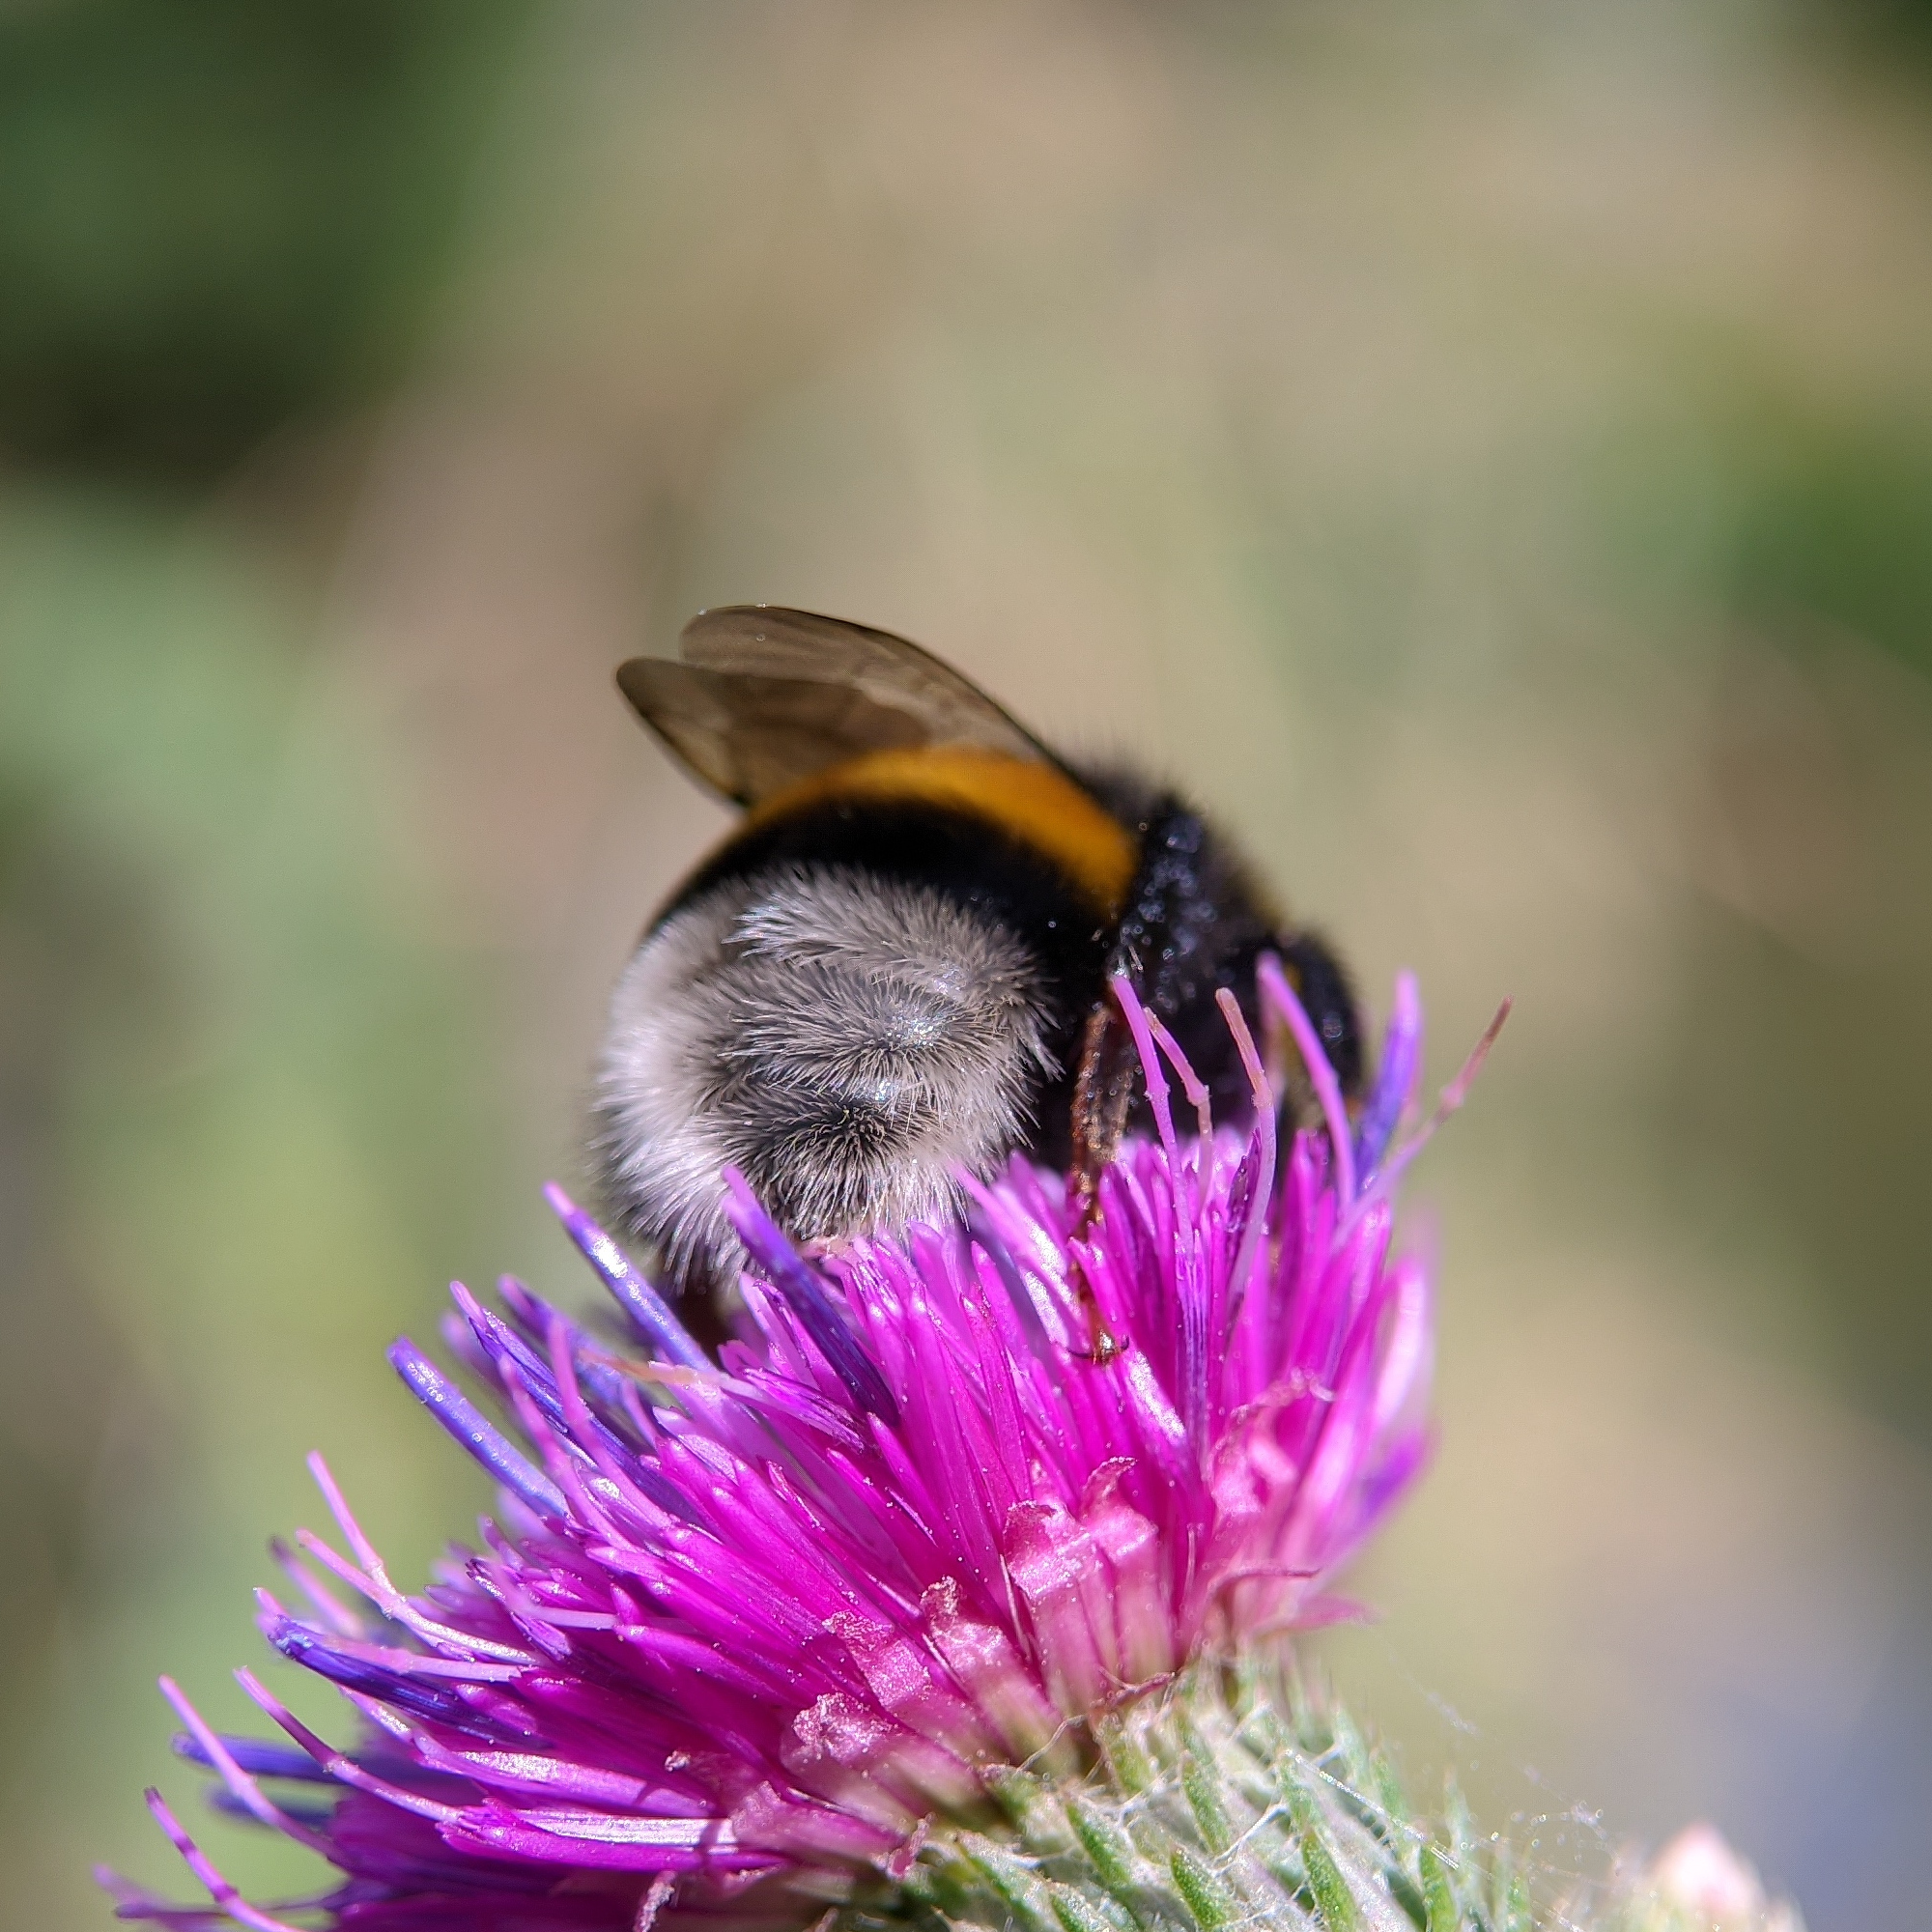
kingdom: Animalia
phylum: Arthropoda
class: Insecta
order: Hymenoptera
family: Apidae
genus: Bombus
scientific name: Bombus terrestris
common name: Buff-tailed bumblebee
